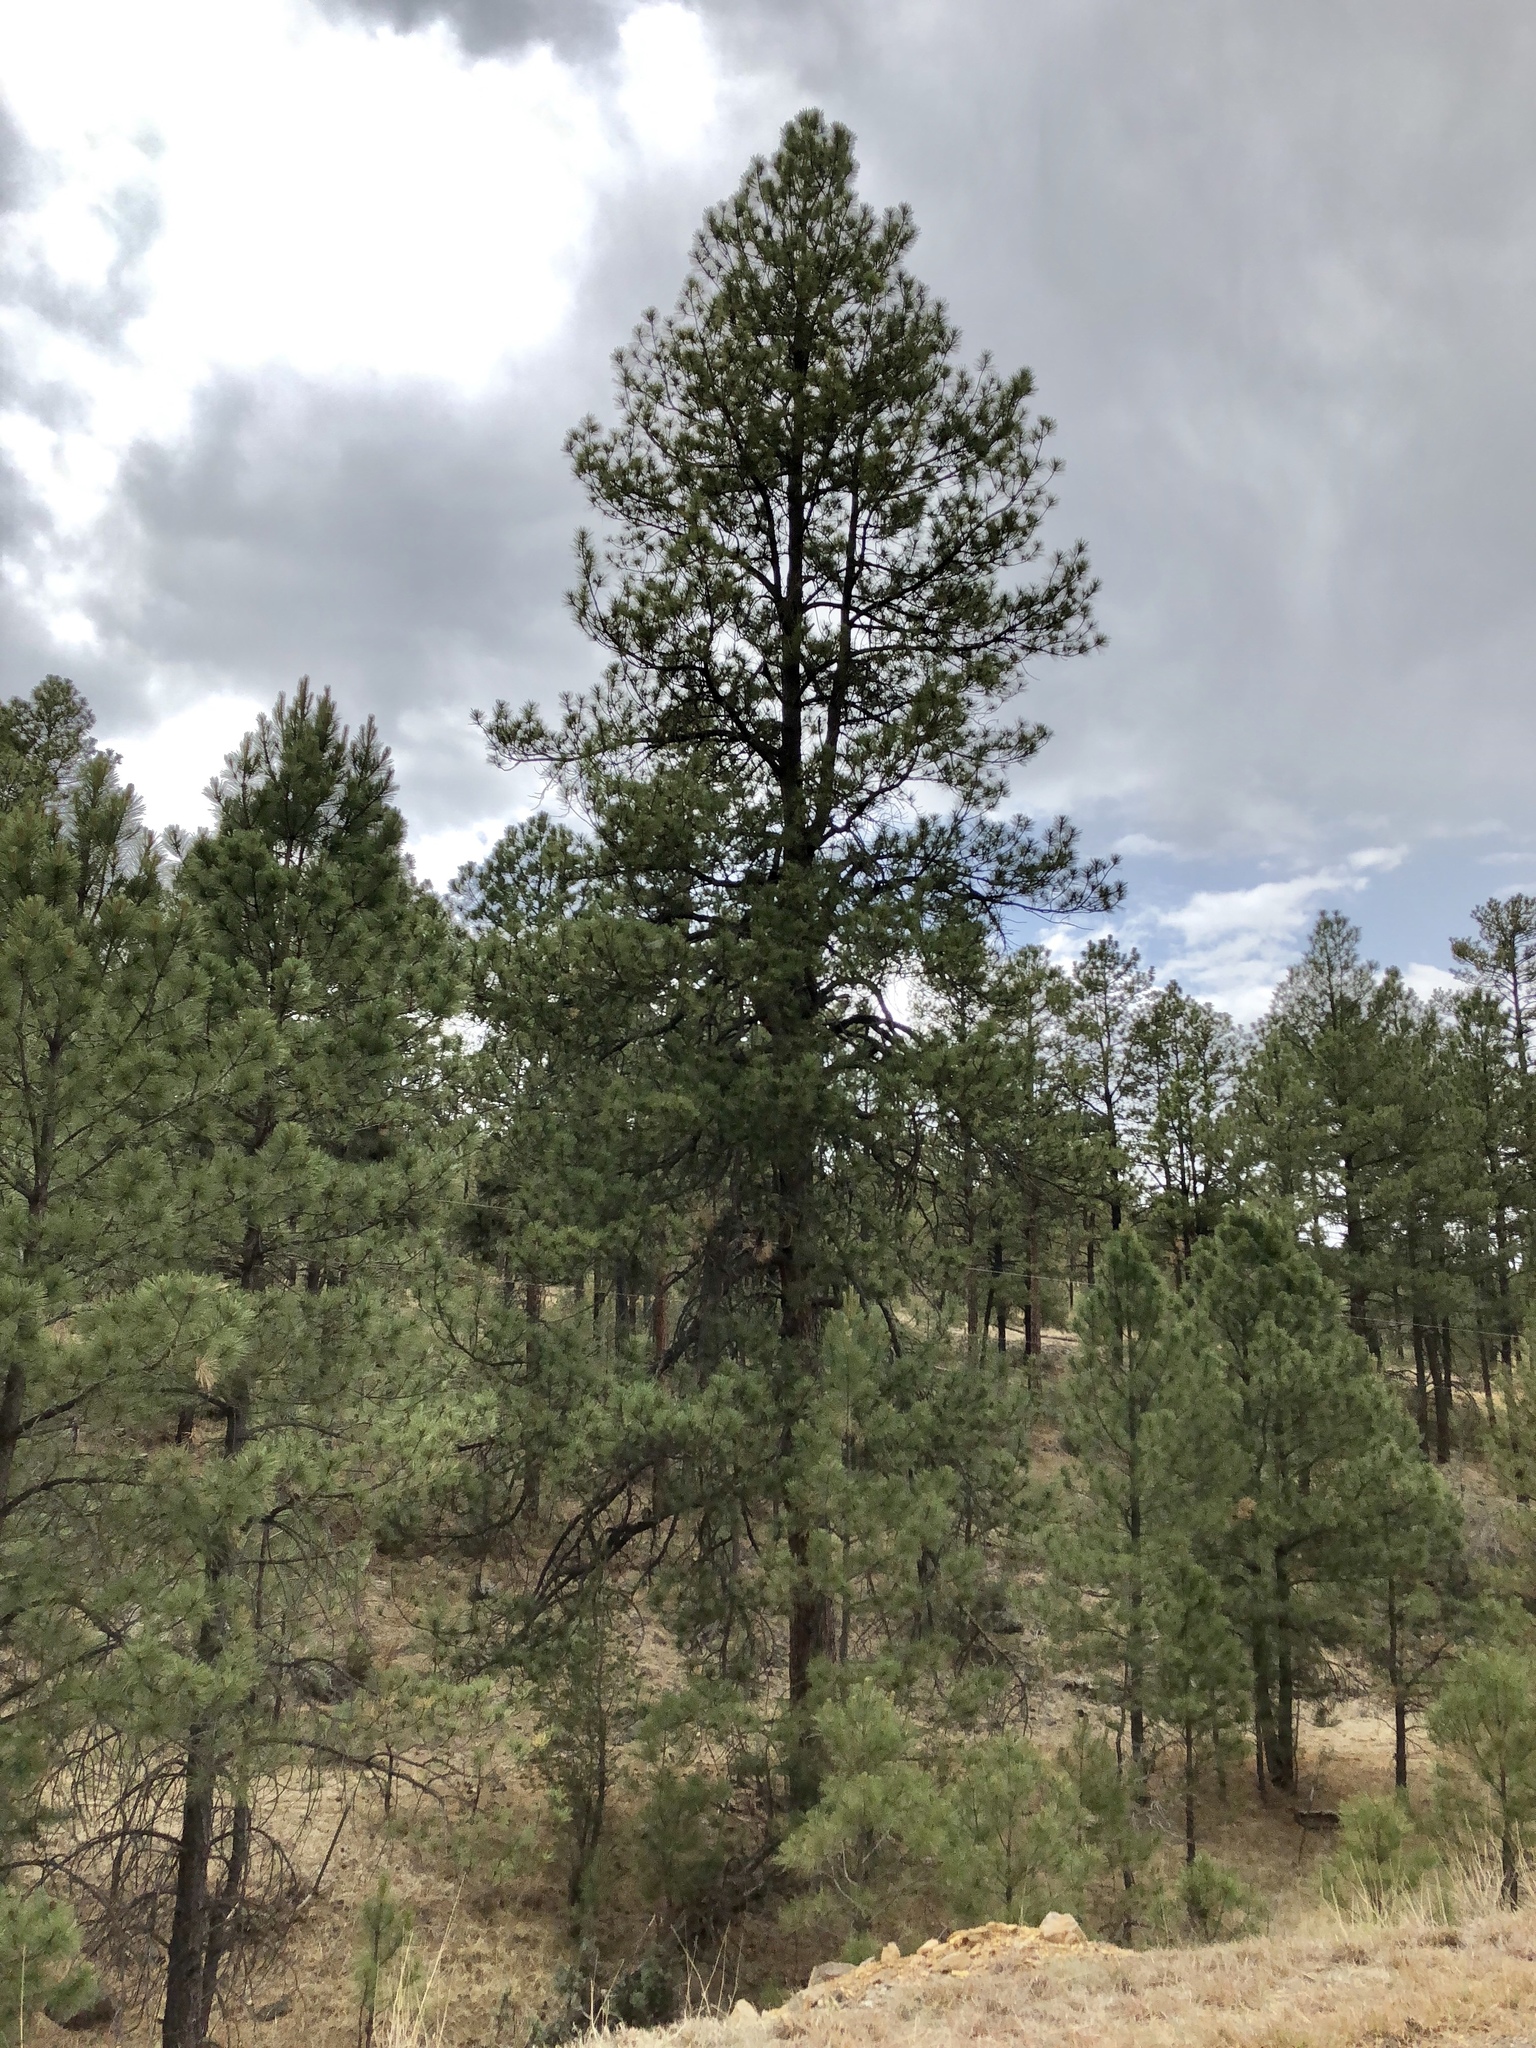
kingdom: Plantae
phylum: Tracheophyta
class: Pinopsida
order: Pinales
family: Pinaceae
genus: Pinus
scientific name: Pinus ponderosa
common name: Western yellow-pine
